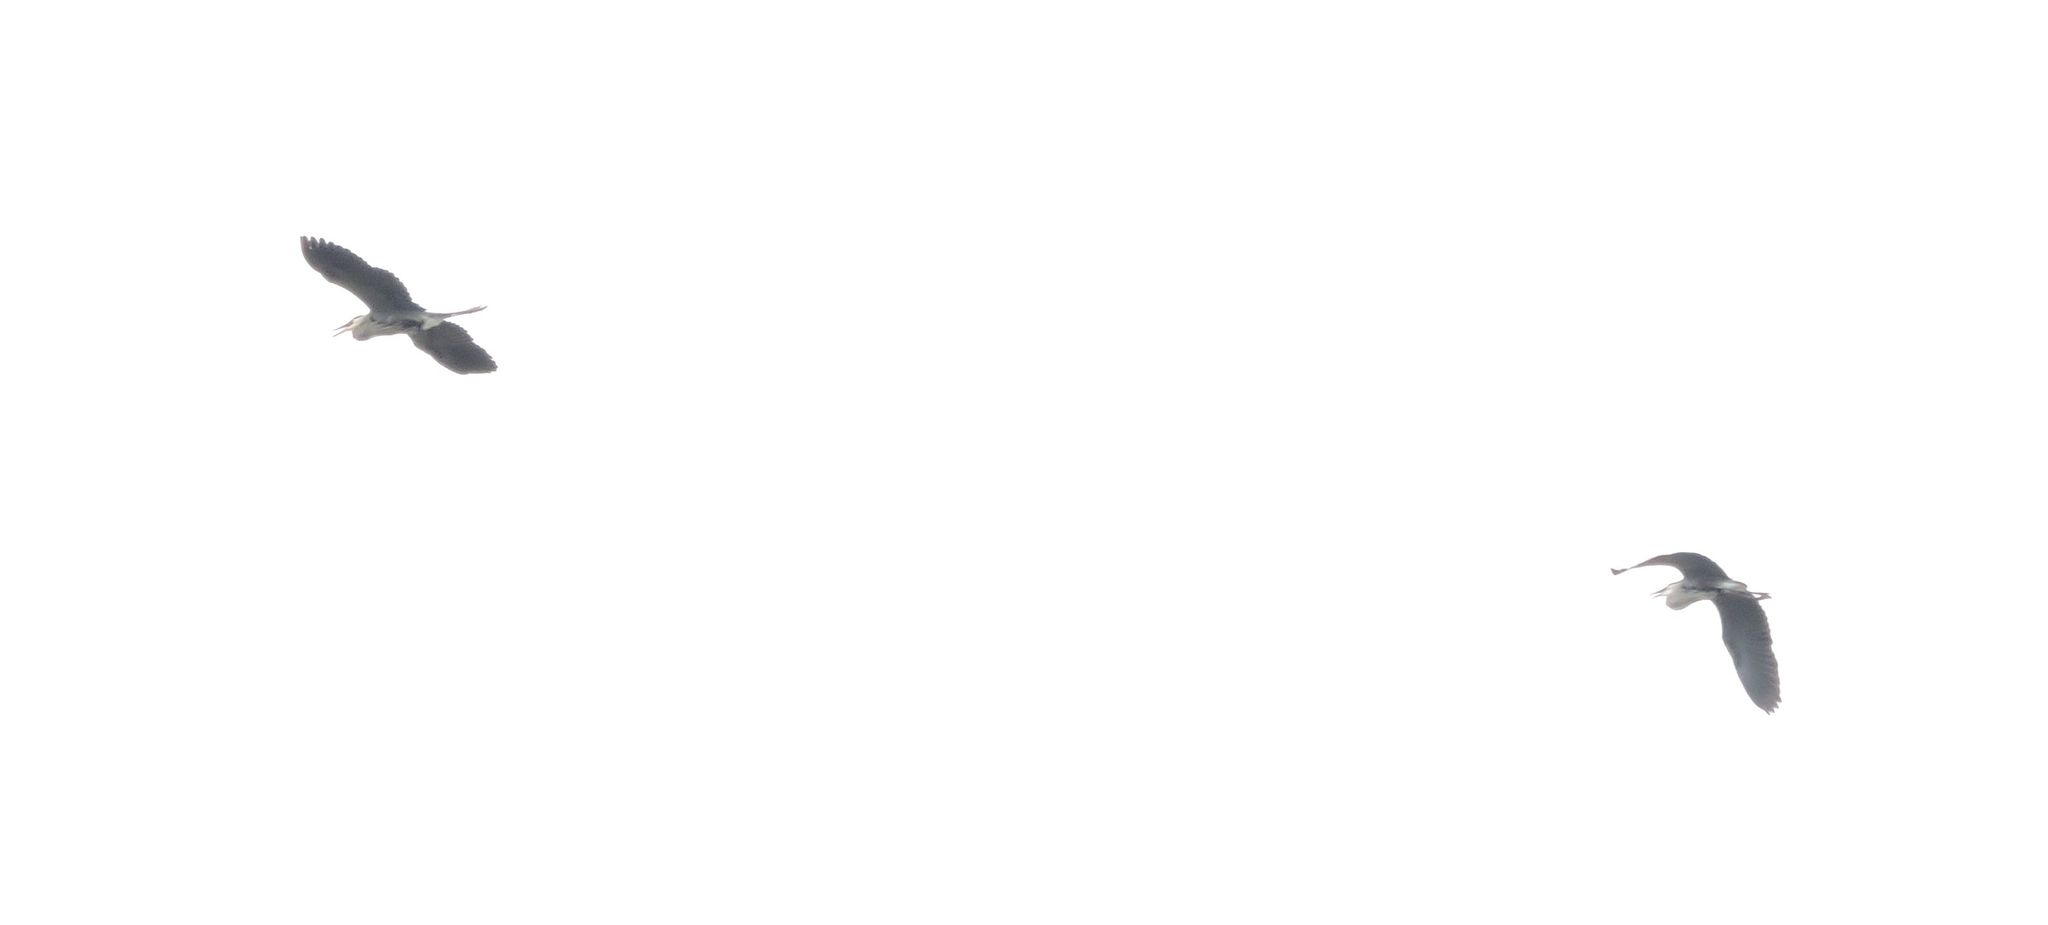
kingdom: Animalia
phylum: Chordata
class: Aves
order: Pelecaniformes
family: Ardeidae
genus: Ardea
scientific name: Ardea herodias
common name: Great blue heron
